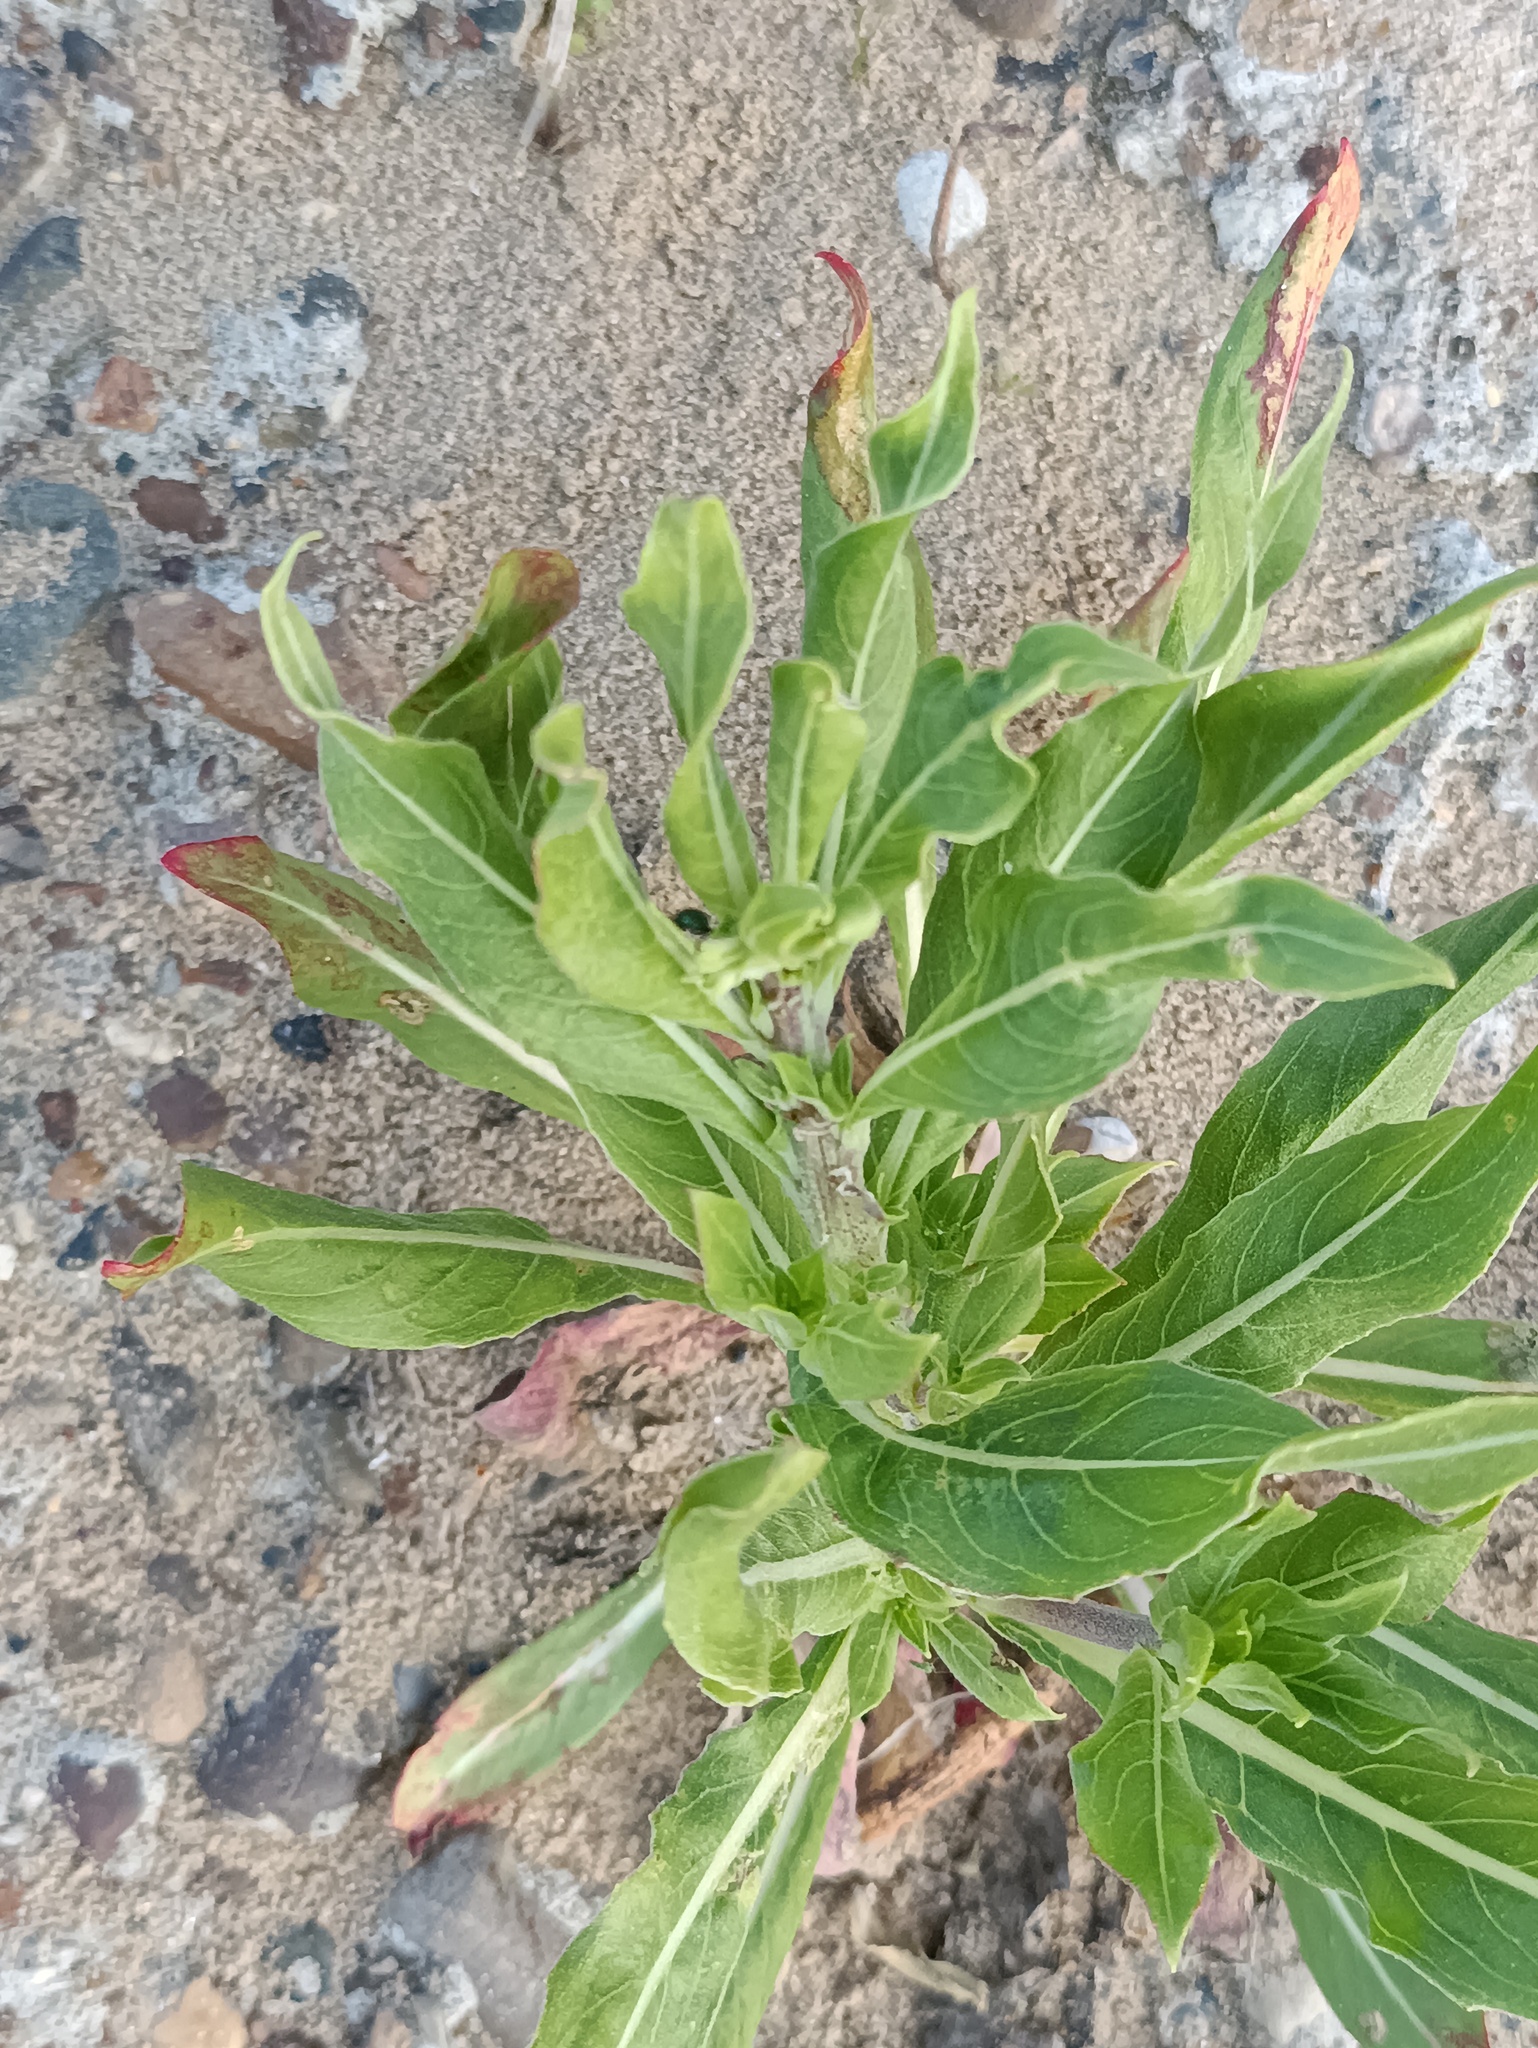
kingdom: Plantae
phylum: Tracheophyta
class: Magnoliopsida
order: Myrtales
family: Onagraceae
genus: Oenothera
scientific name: Oenothera villosa
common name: Hairy evening-primrose
